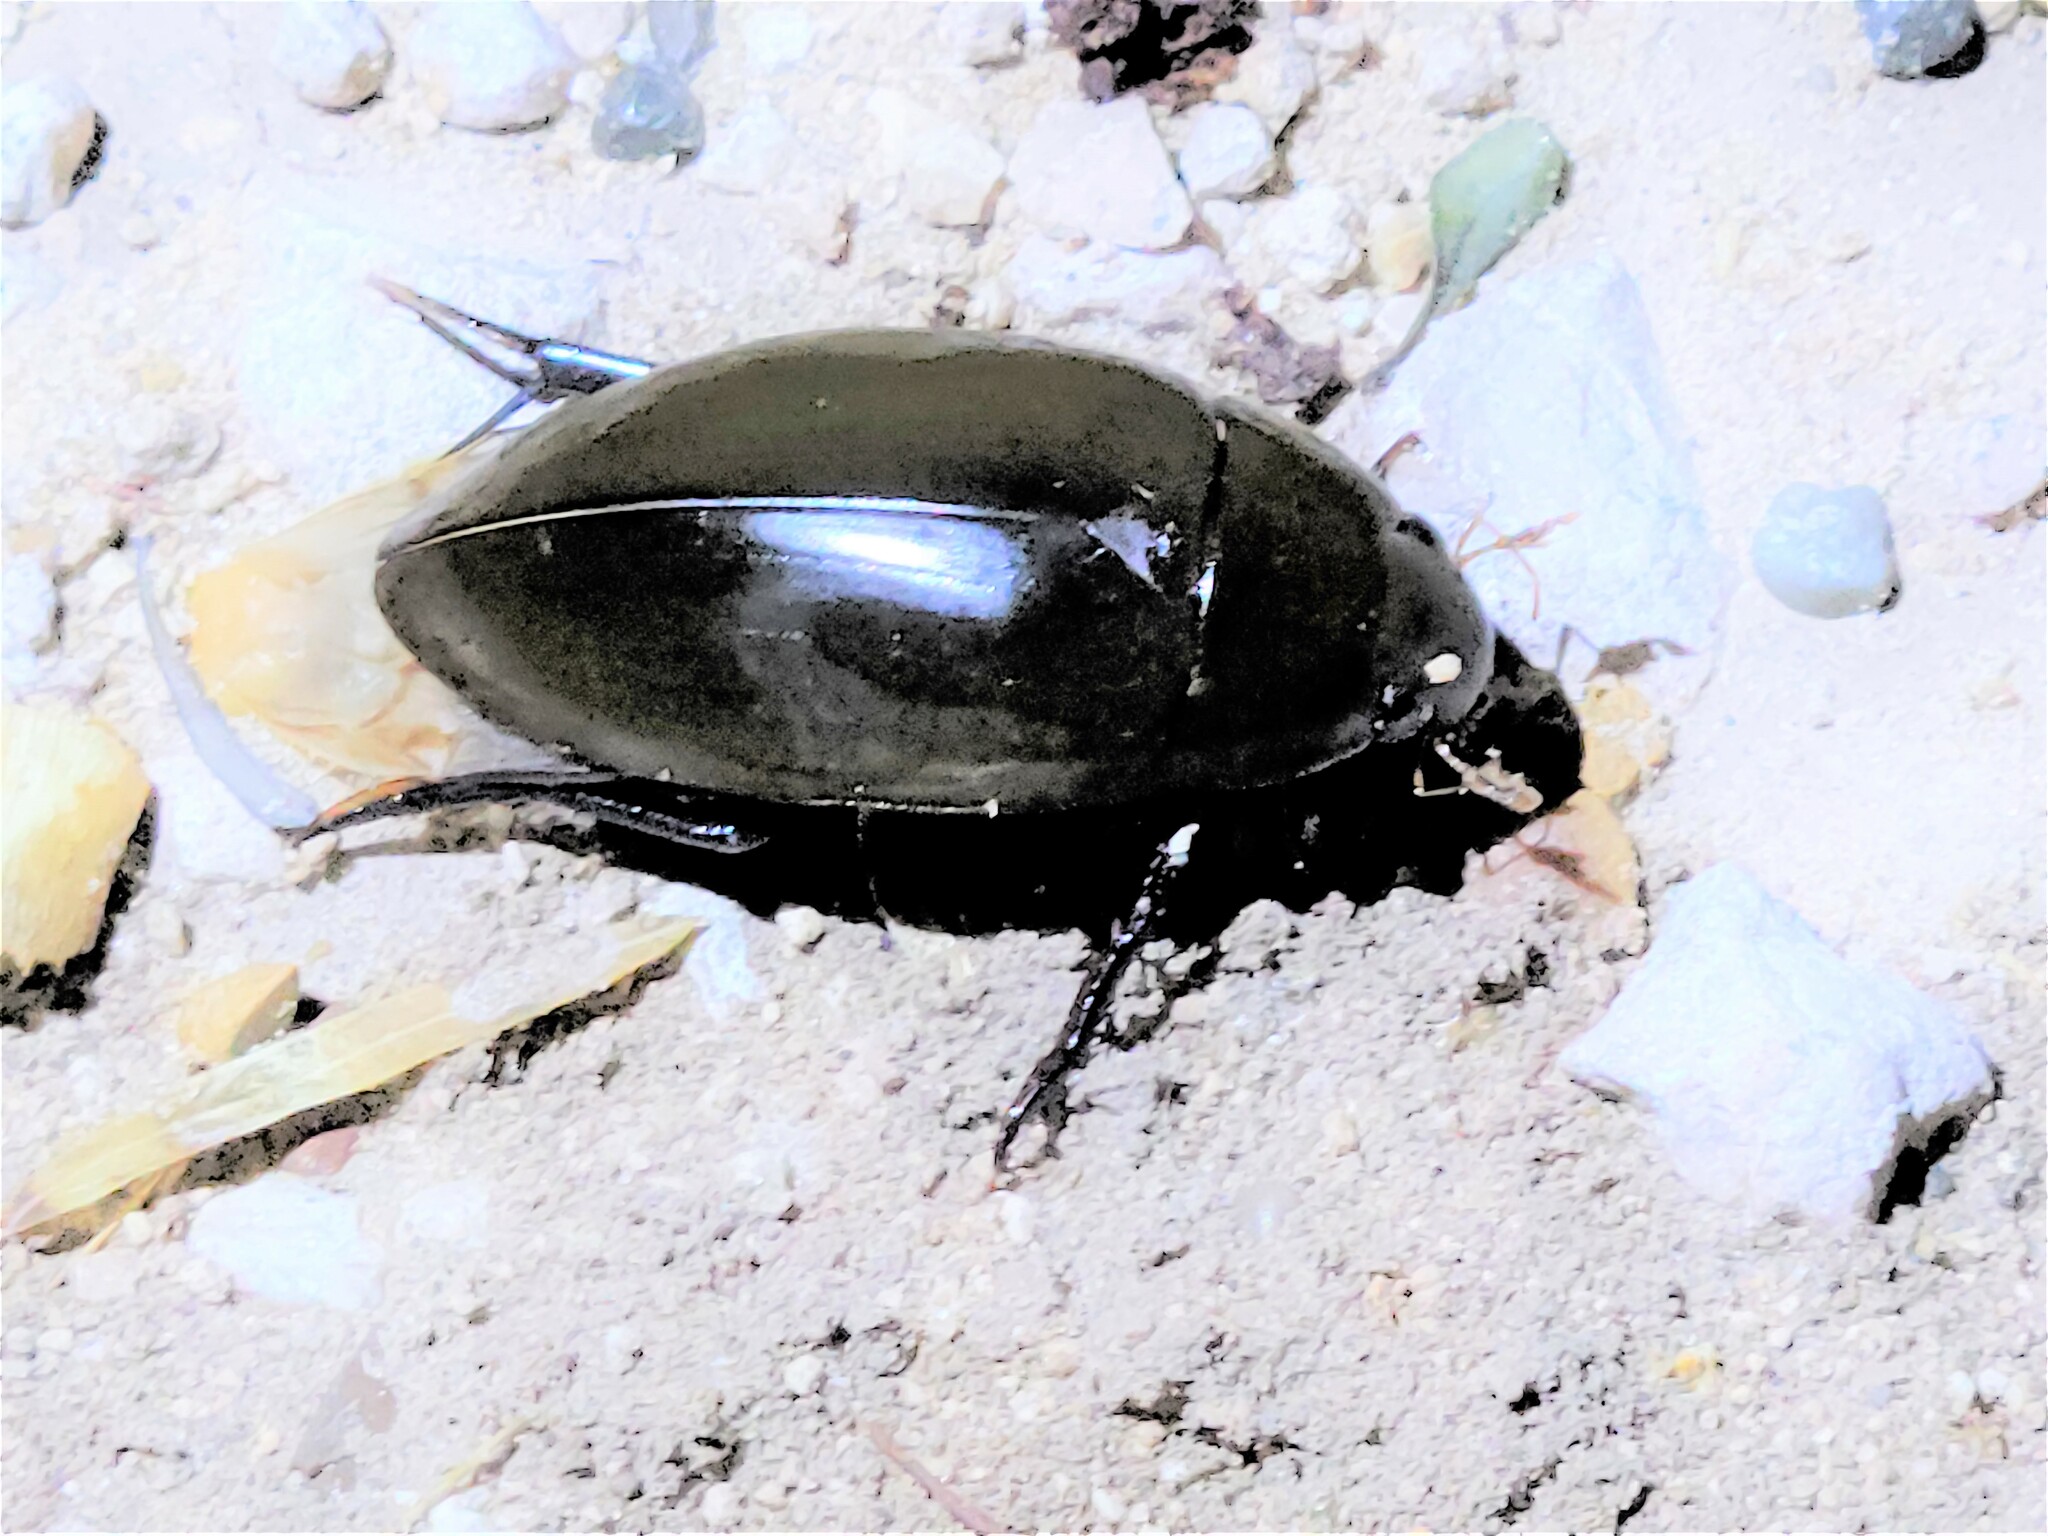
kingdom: Animalia
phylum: Arthropoda
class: Insecta
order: Coleoptera
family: Hydrophilidae
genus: Hydrophilus
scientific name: Hydrophilus insularis
